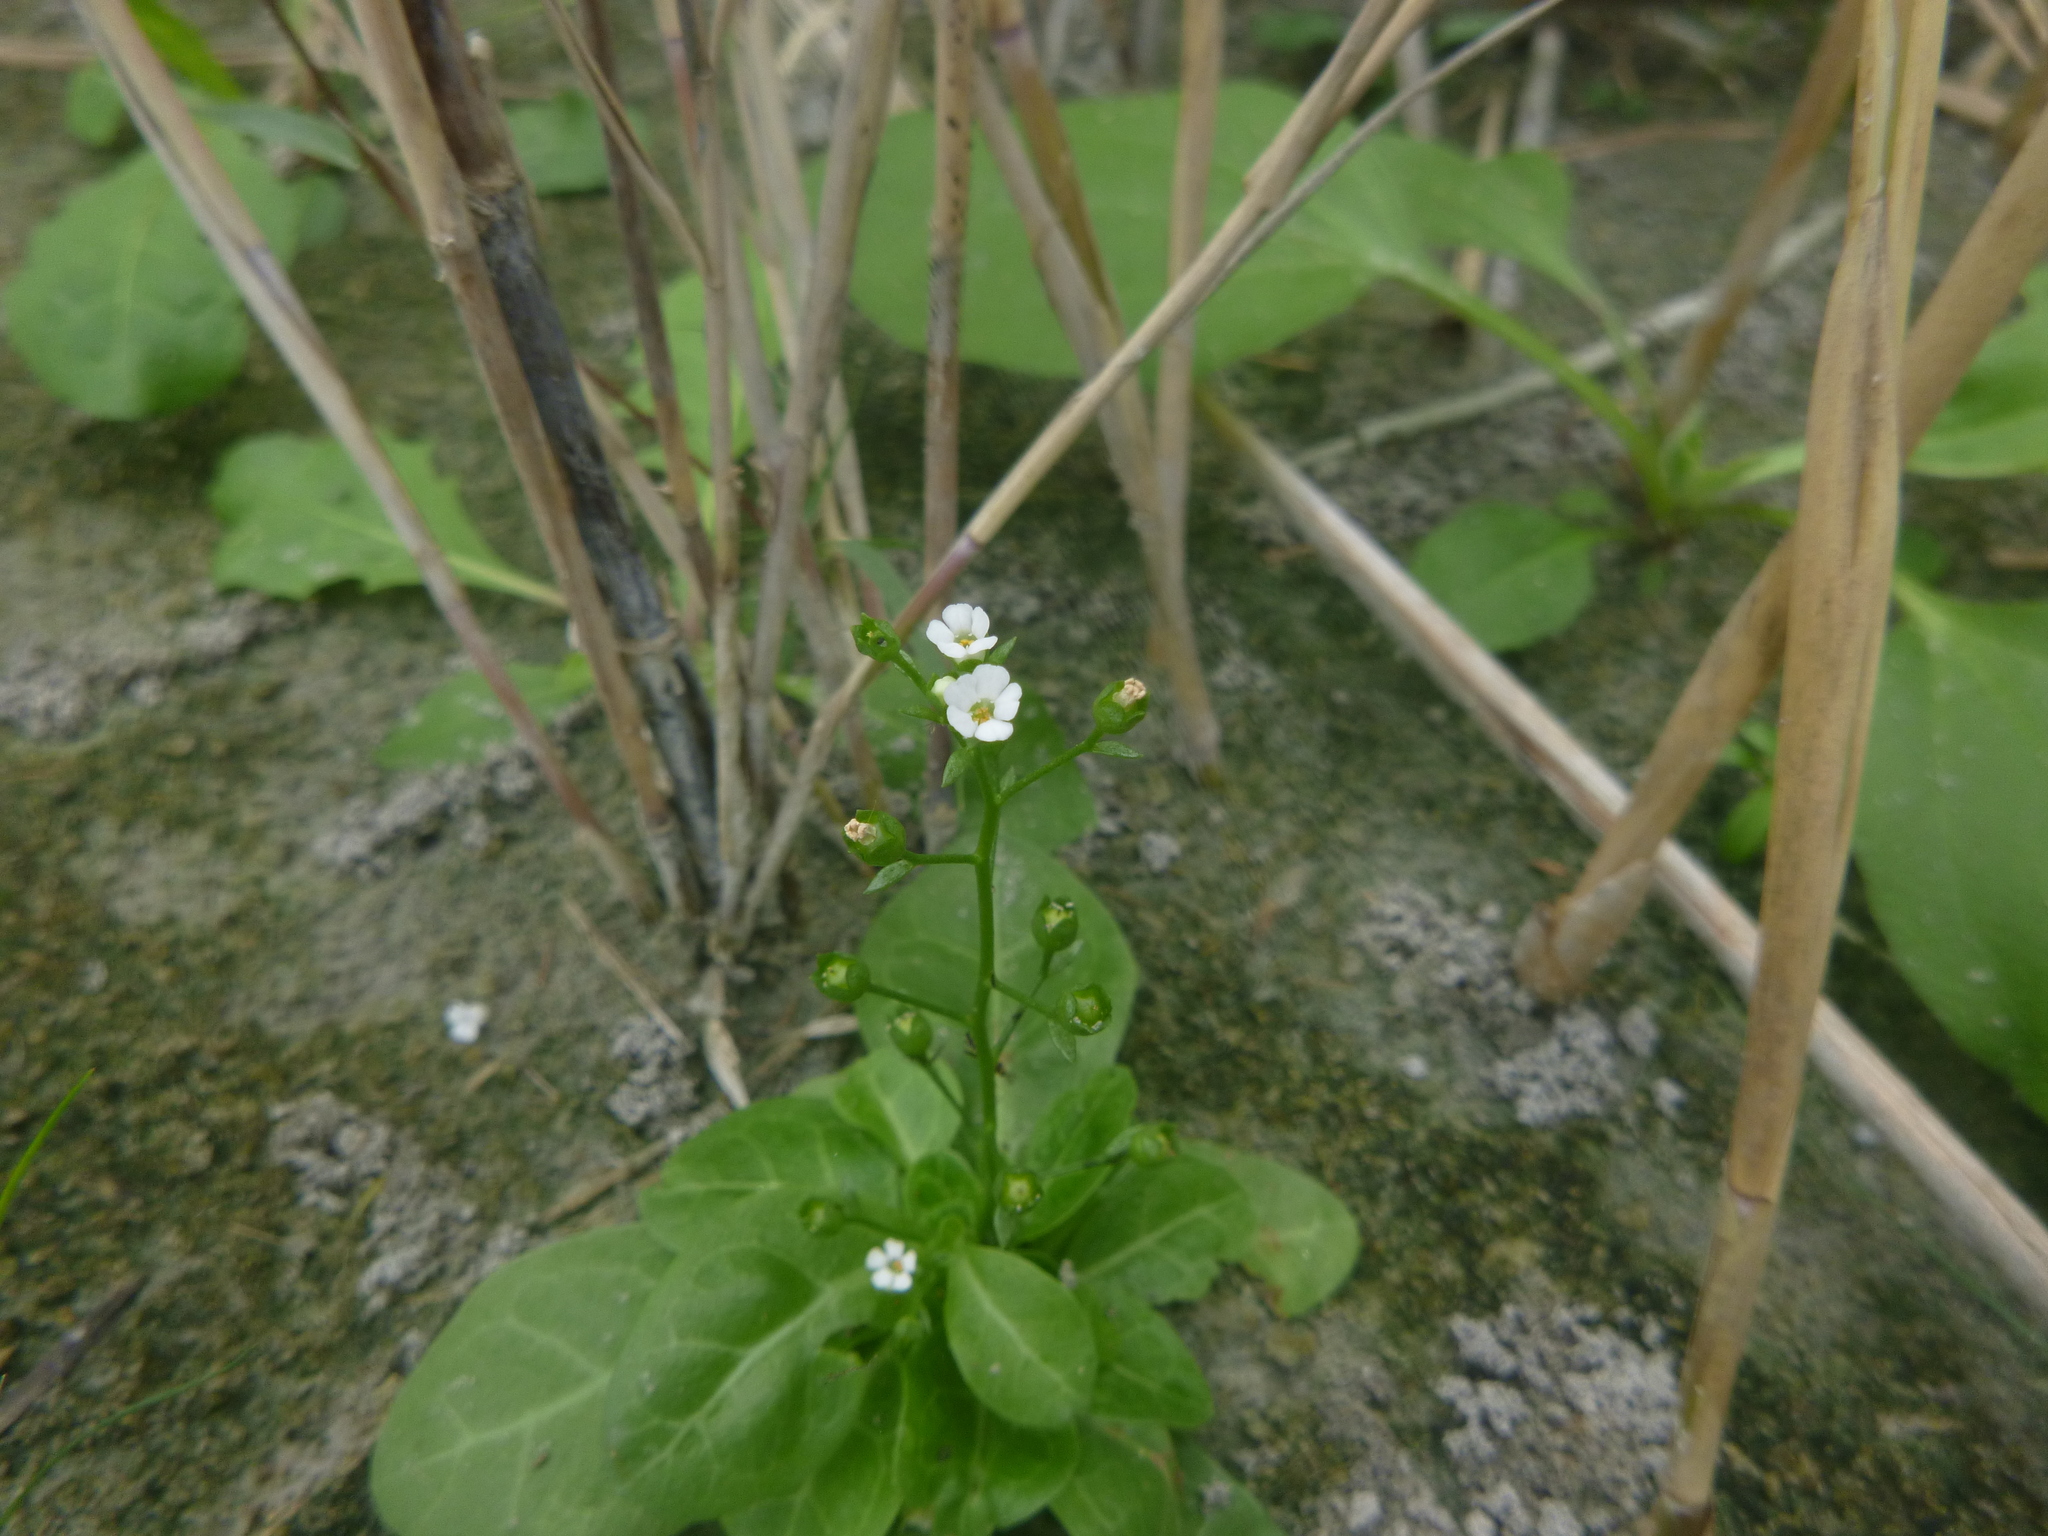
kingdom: Plantae
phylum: Tracheophyta
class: Magnoliopsida
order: Ericales
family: Primulaceae
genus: Samolus
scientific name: Samolus valerandi
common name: Brookweed
